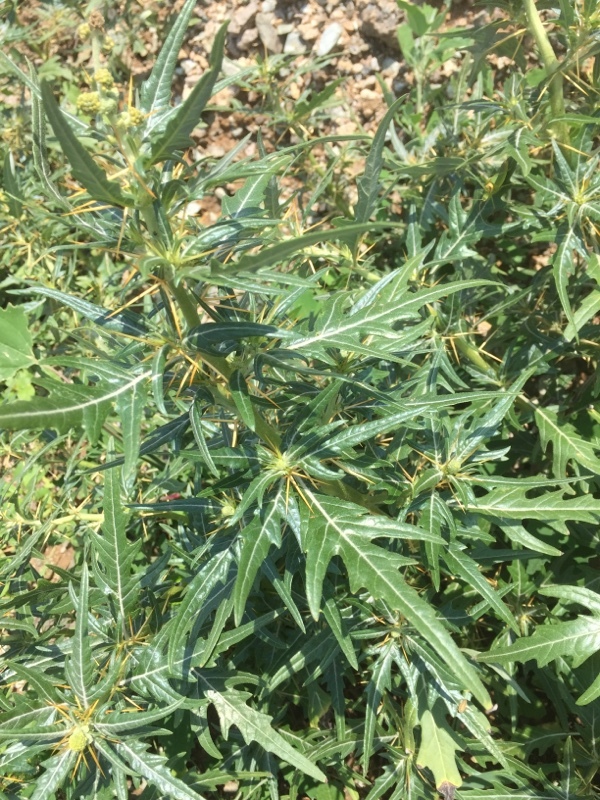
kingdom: Plantae
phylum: Tracheophyta
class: Magnoliopsida
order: Asterales
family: Asteraceae
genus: Xanthium
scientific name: Xanthium spinosum
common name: Spiny cocklebur
